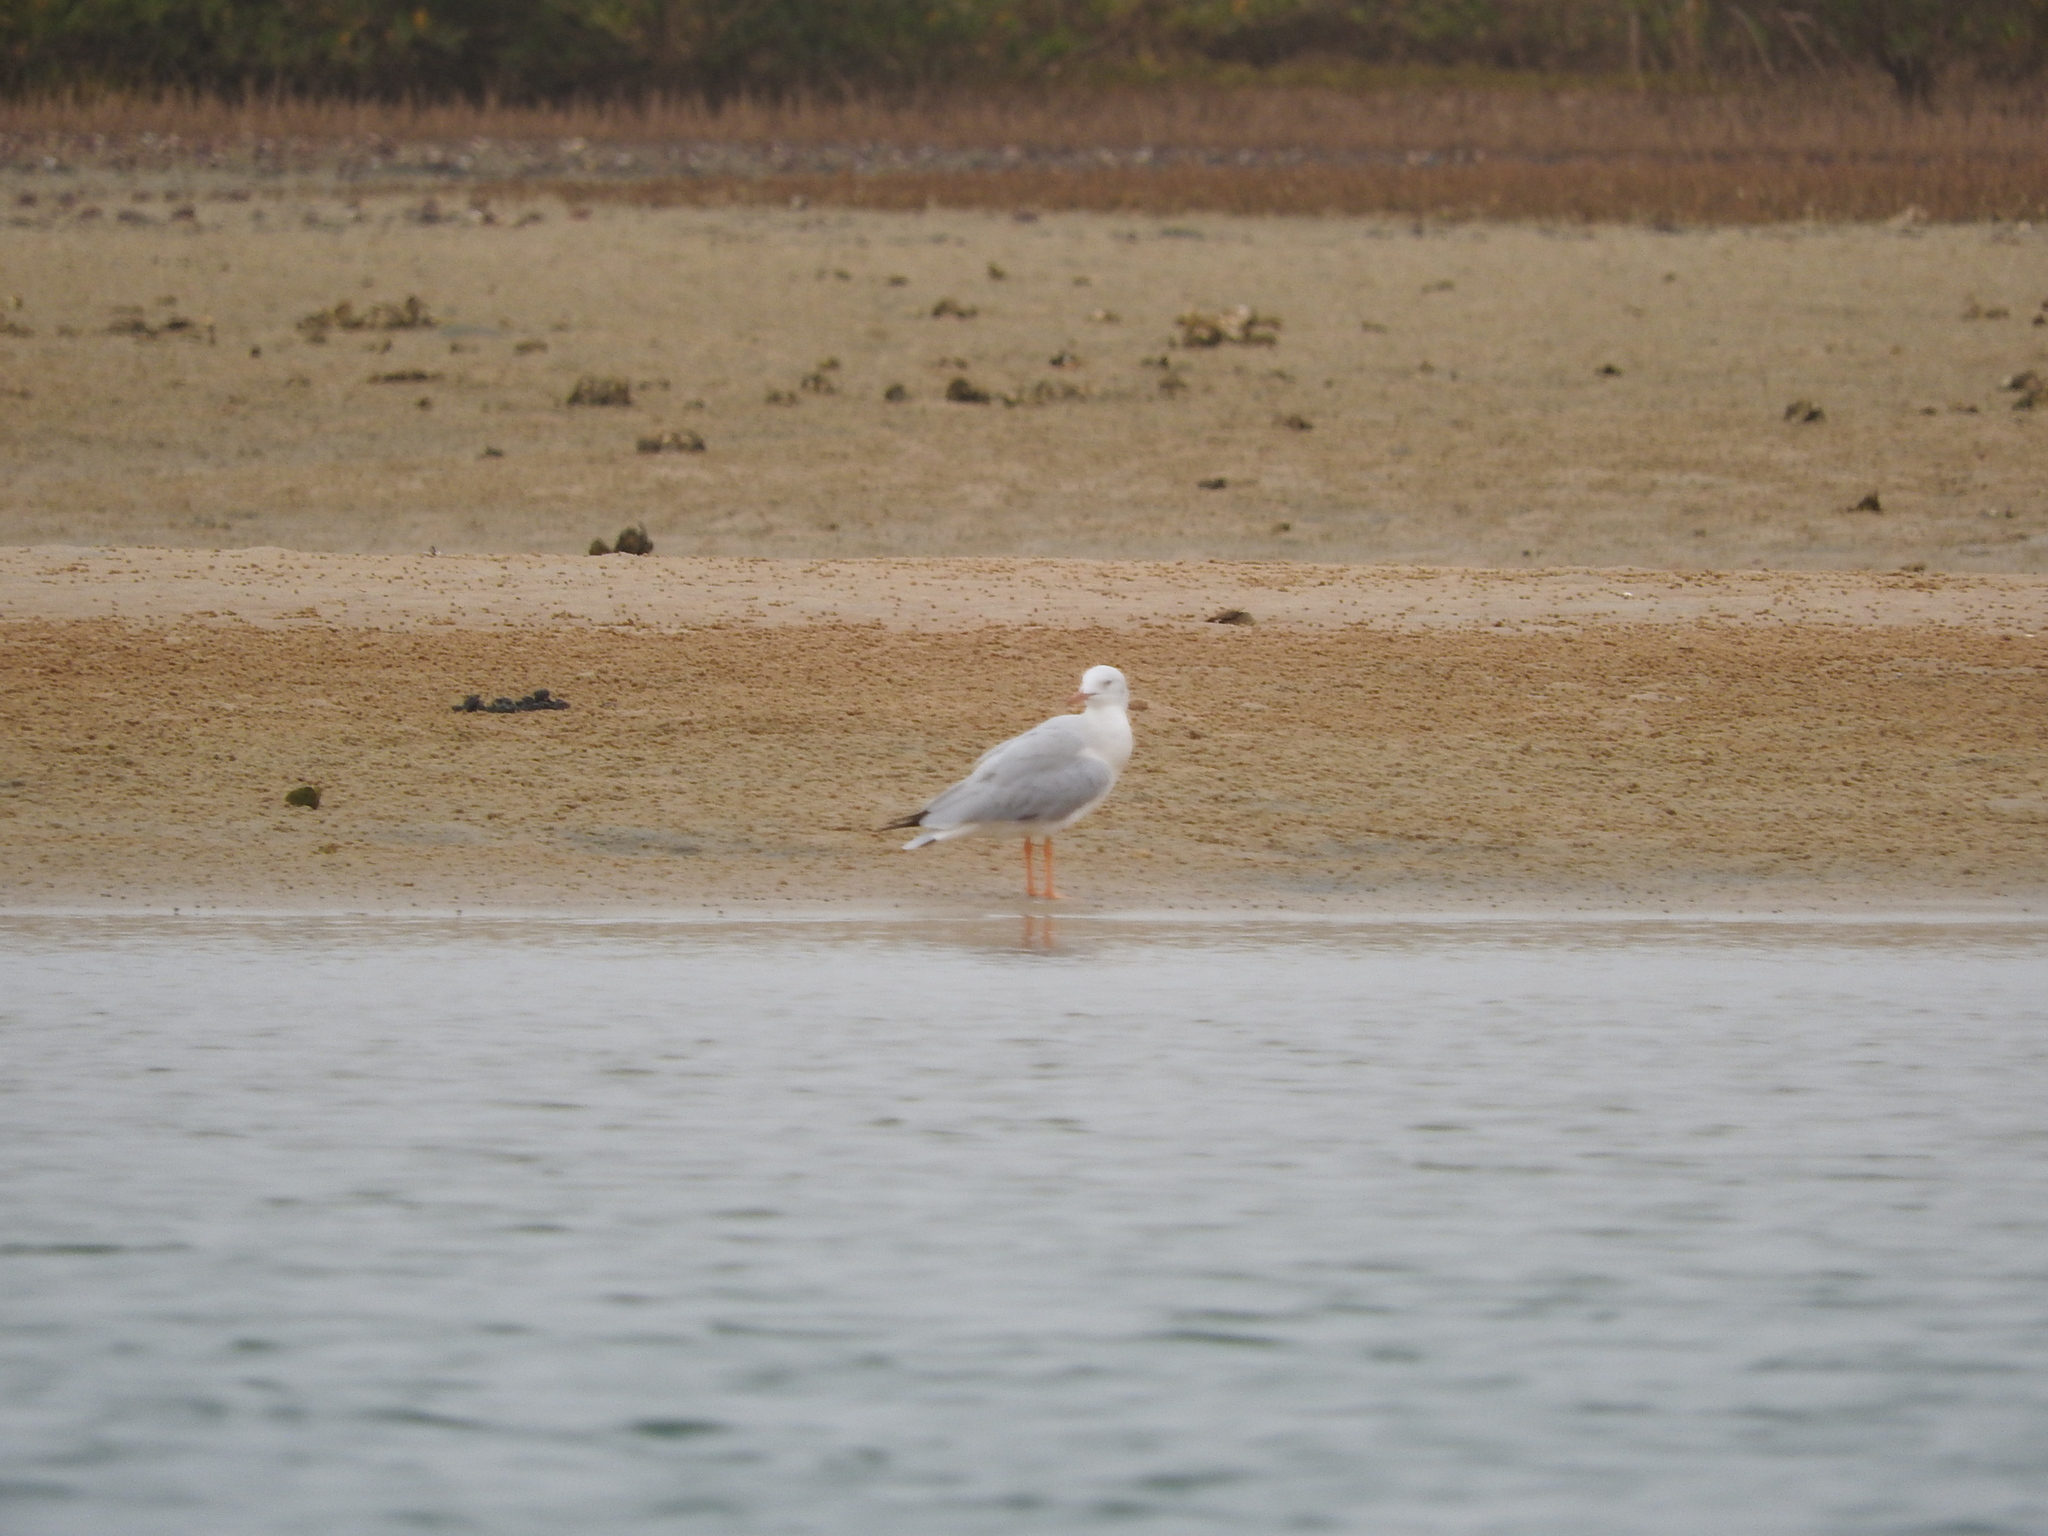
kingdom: Animalia
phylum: Chordata
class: Aves
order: Charadriiformes
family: Laridae
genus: Chroicocephalus
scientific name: Chroicocephalus genei
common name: Slender-billed gull
